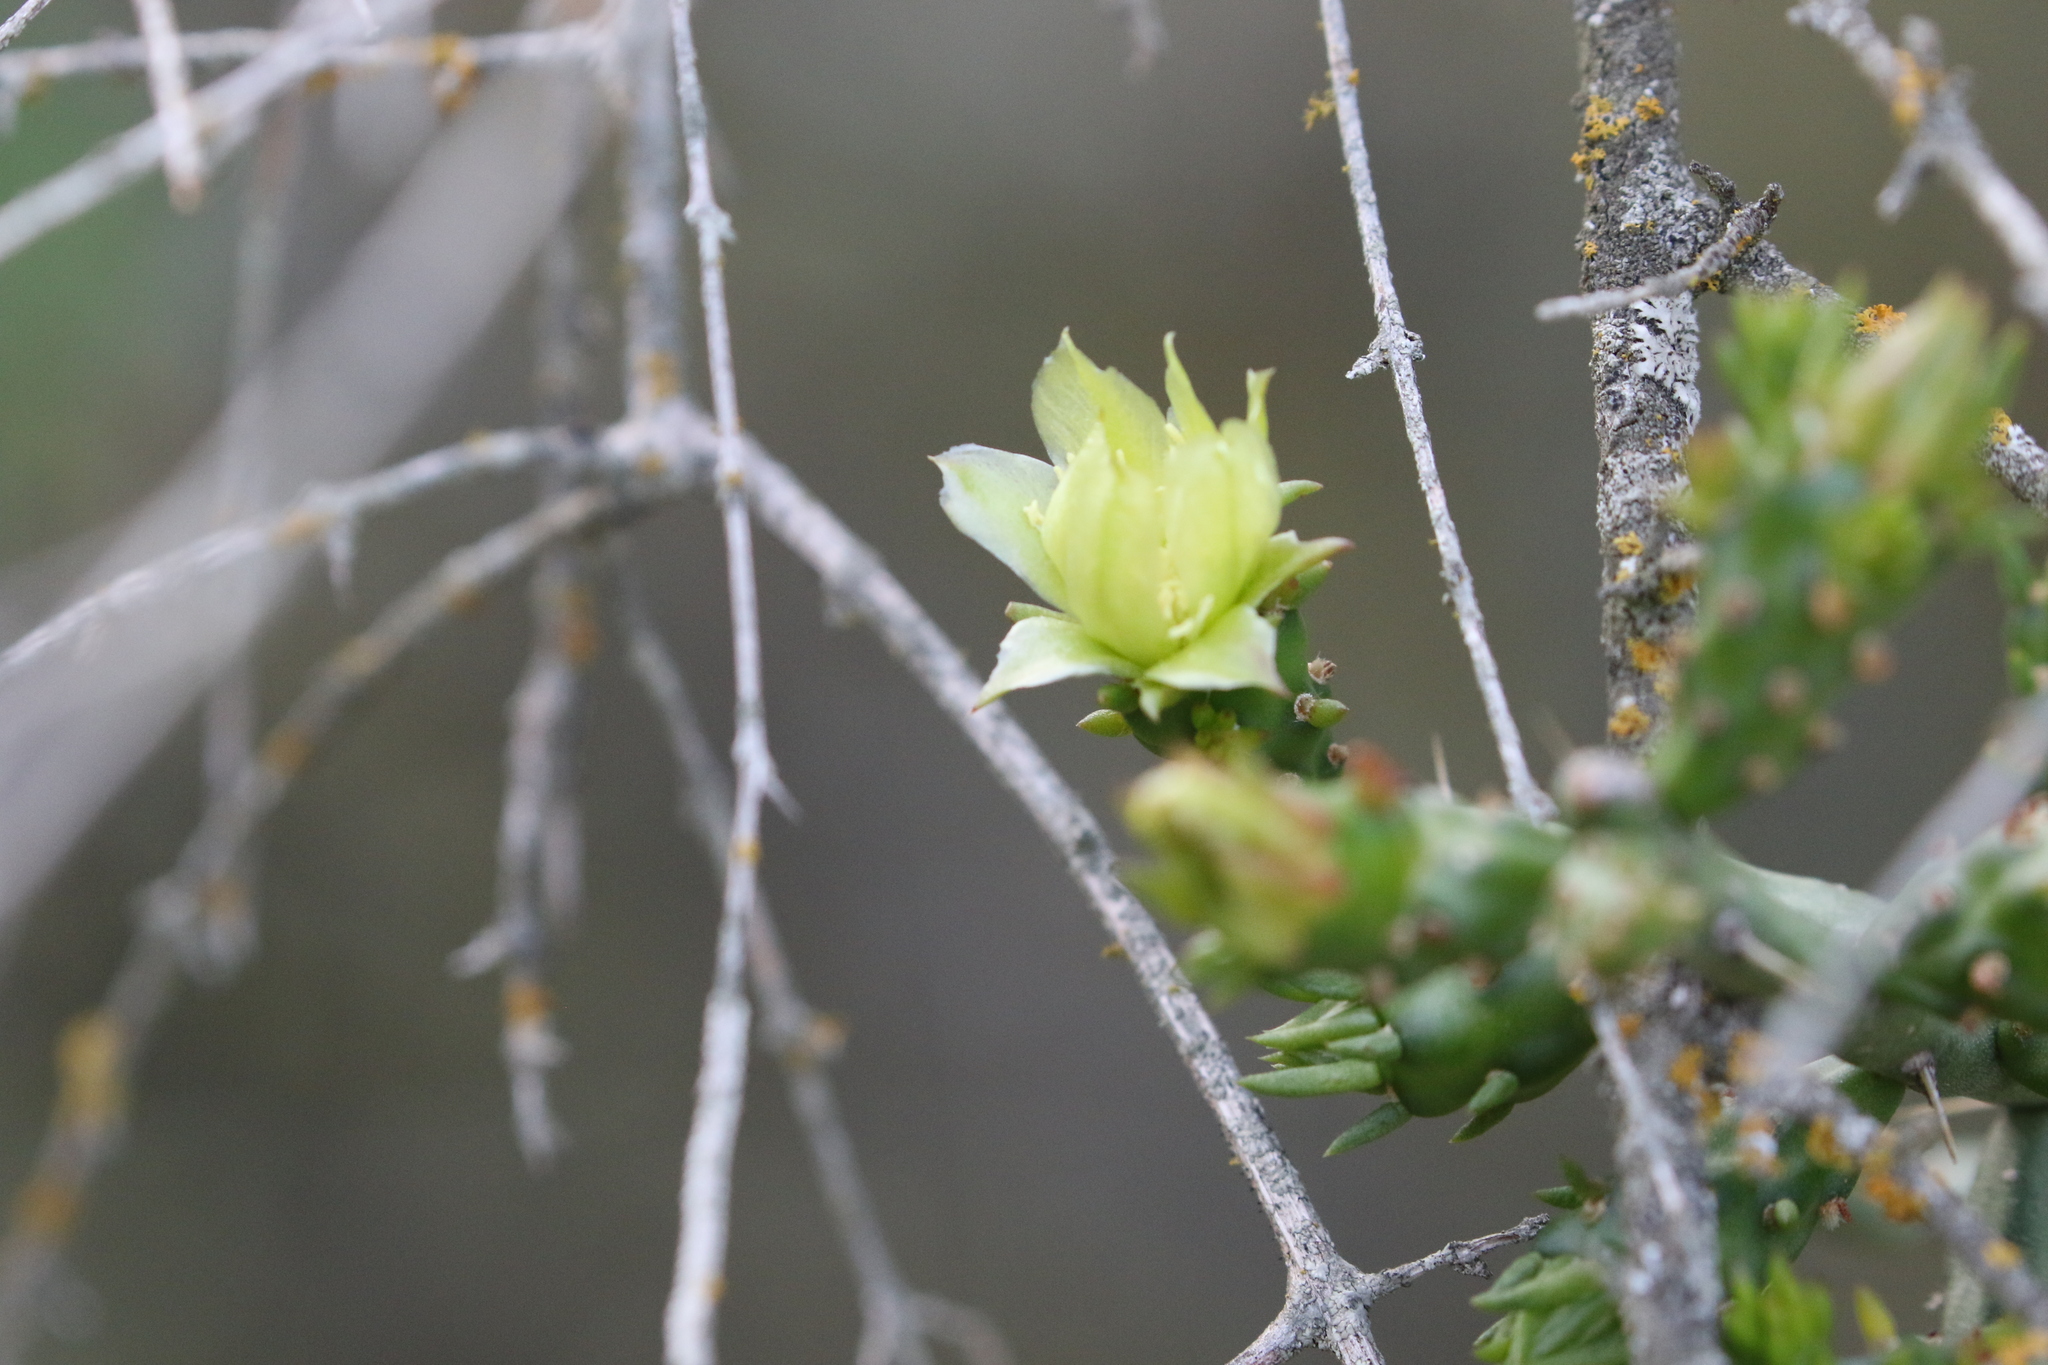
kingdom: Plantae
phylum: Tracheophyta
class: Magnoliopsida
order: Caryophyllales
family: Cactaceae
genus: Cylindropuntia
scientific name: Cylindropuntia leptocaulis
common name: Christmas cactus
